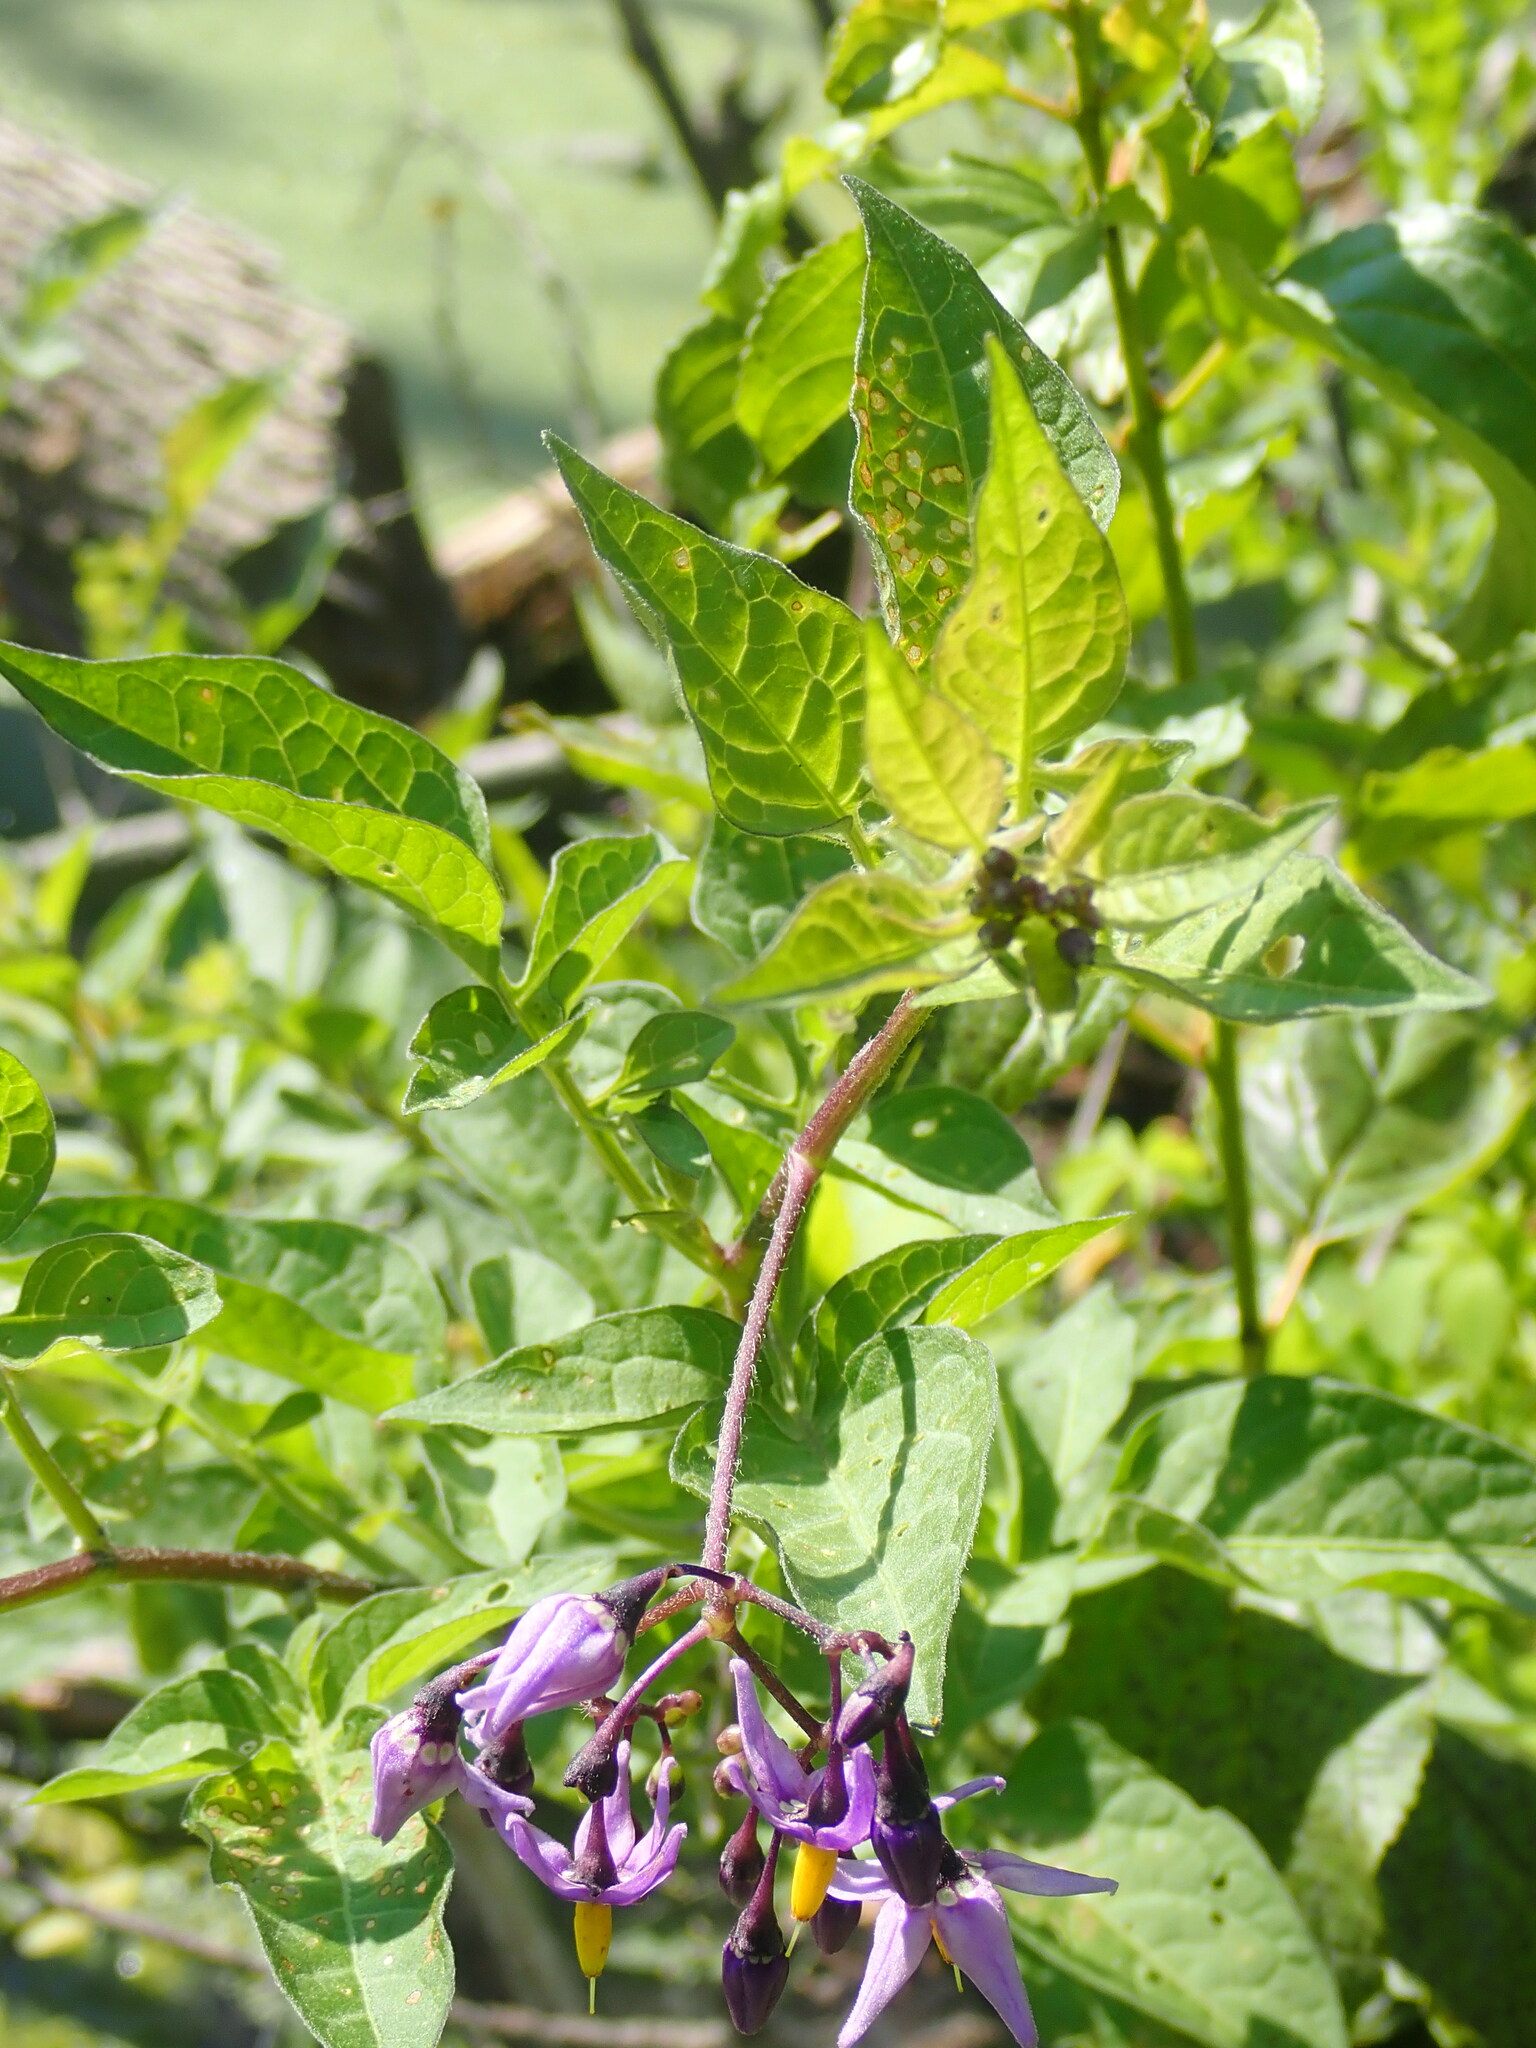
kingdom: Plantae
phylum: Tracheophyta
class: Magnoliopsida
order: Solanales
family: Solanaceae
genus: Solanum
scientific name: Solanum dulcamara
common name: Climbing nightshade
